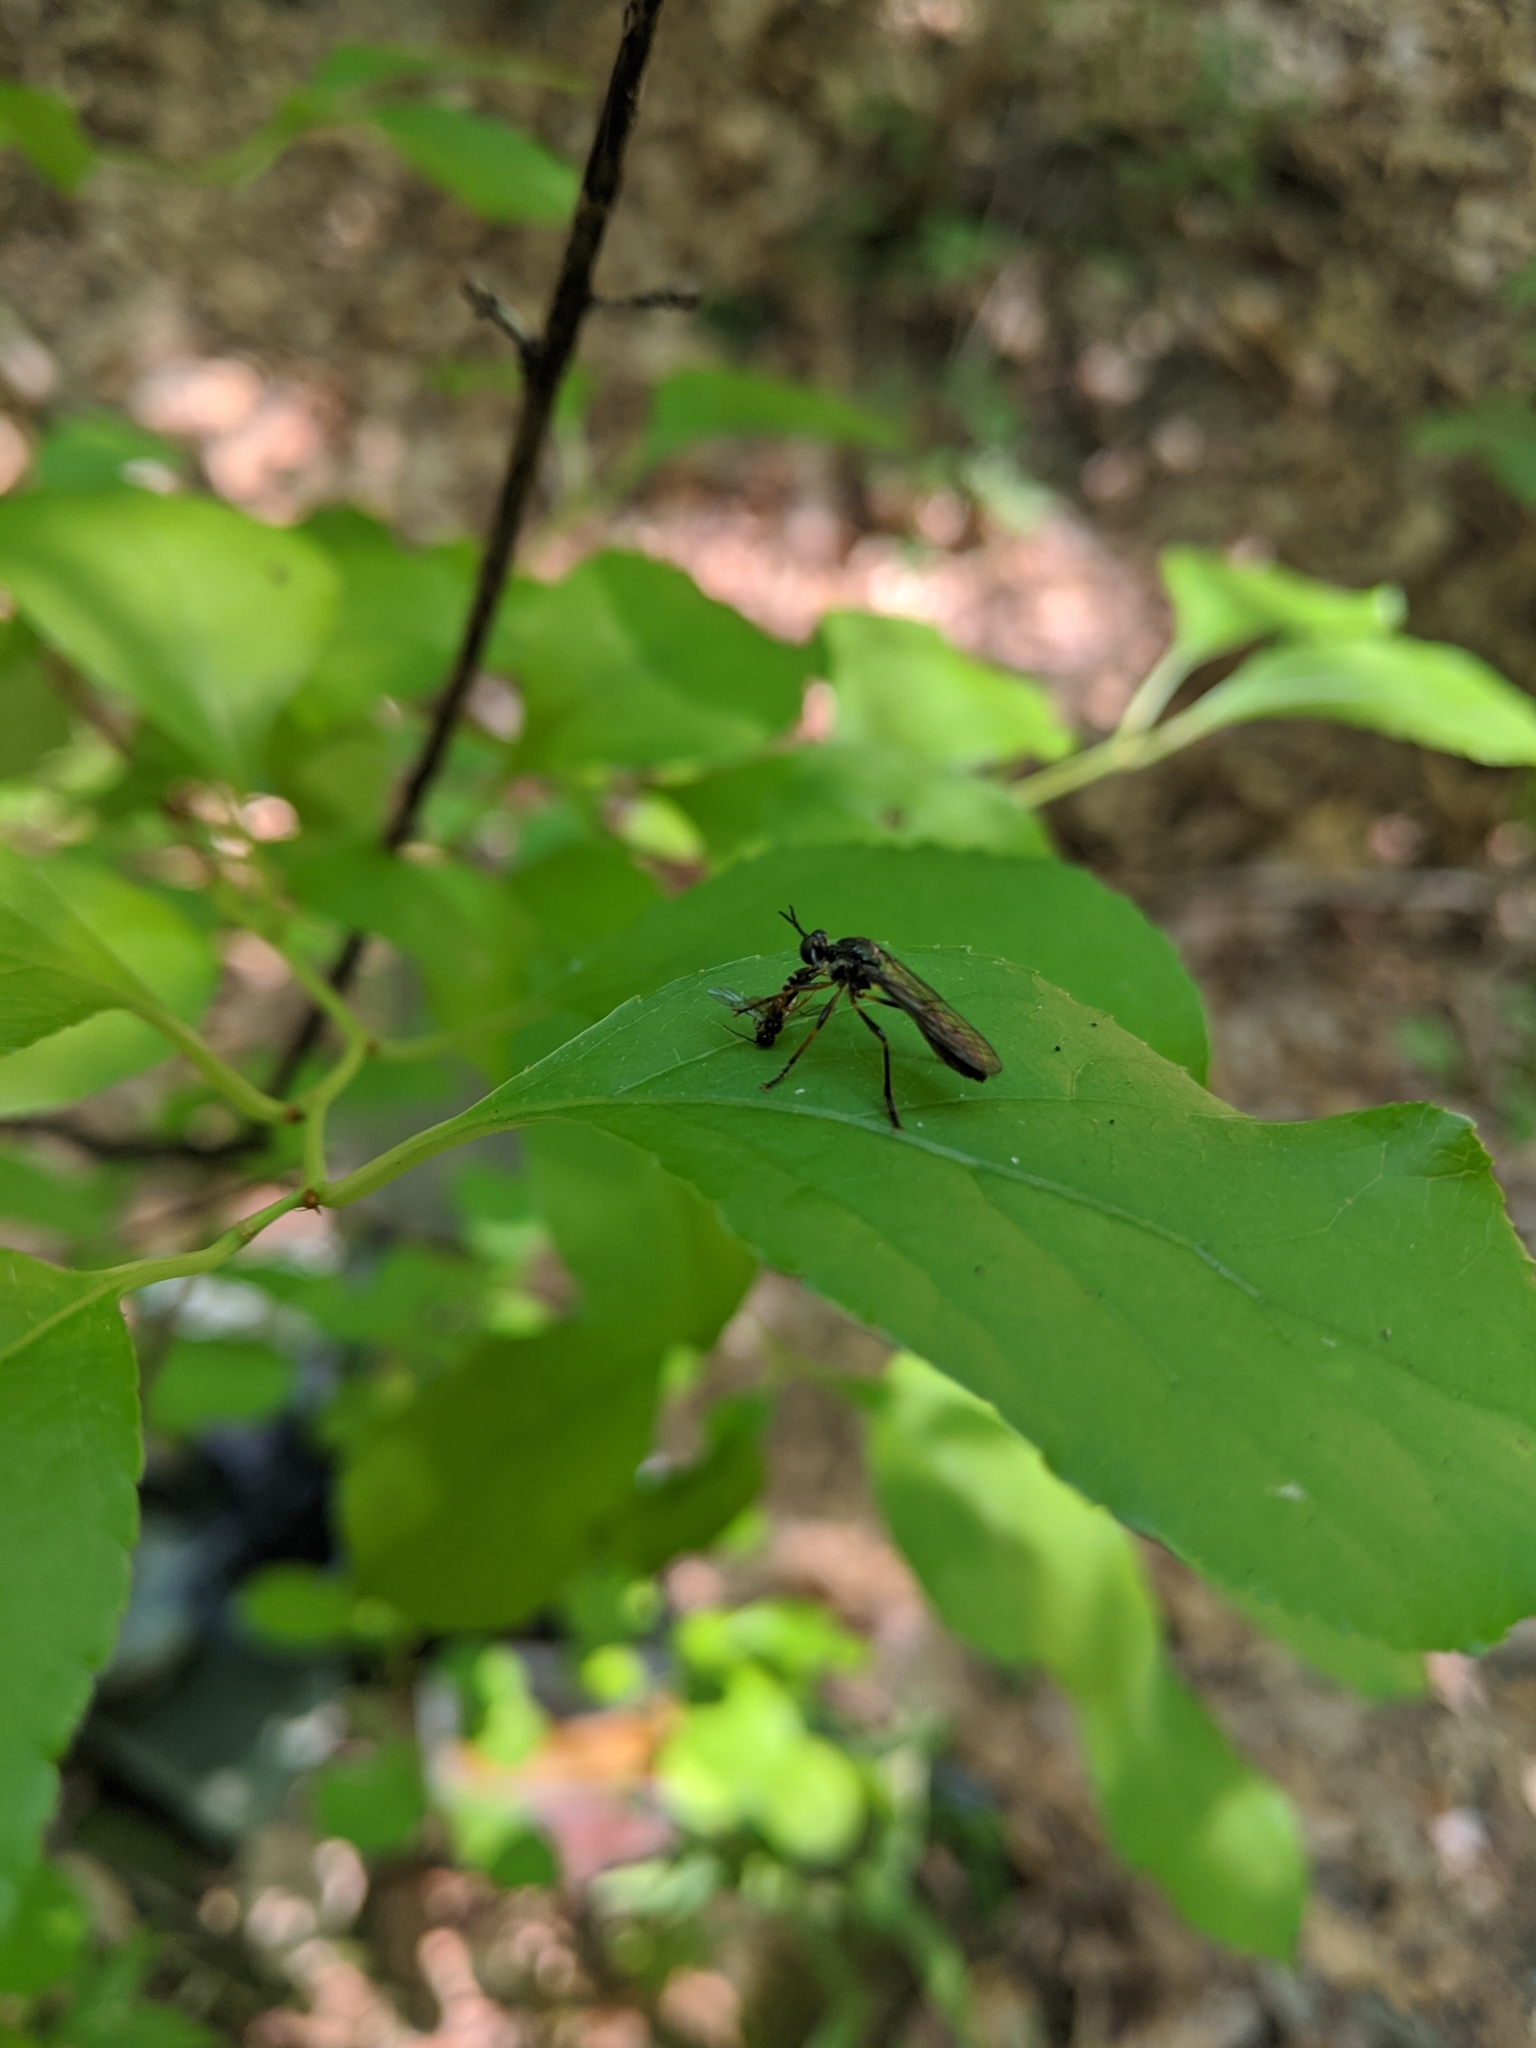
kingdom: Animalia
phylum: Arthropoda
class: Insecta
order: Diptera
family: Asilidae
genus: Dioctria
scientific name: Dioctria hyalipennis
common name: Stripe-legged robberfly
